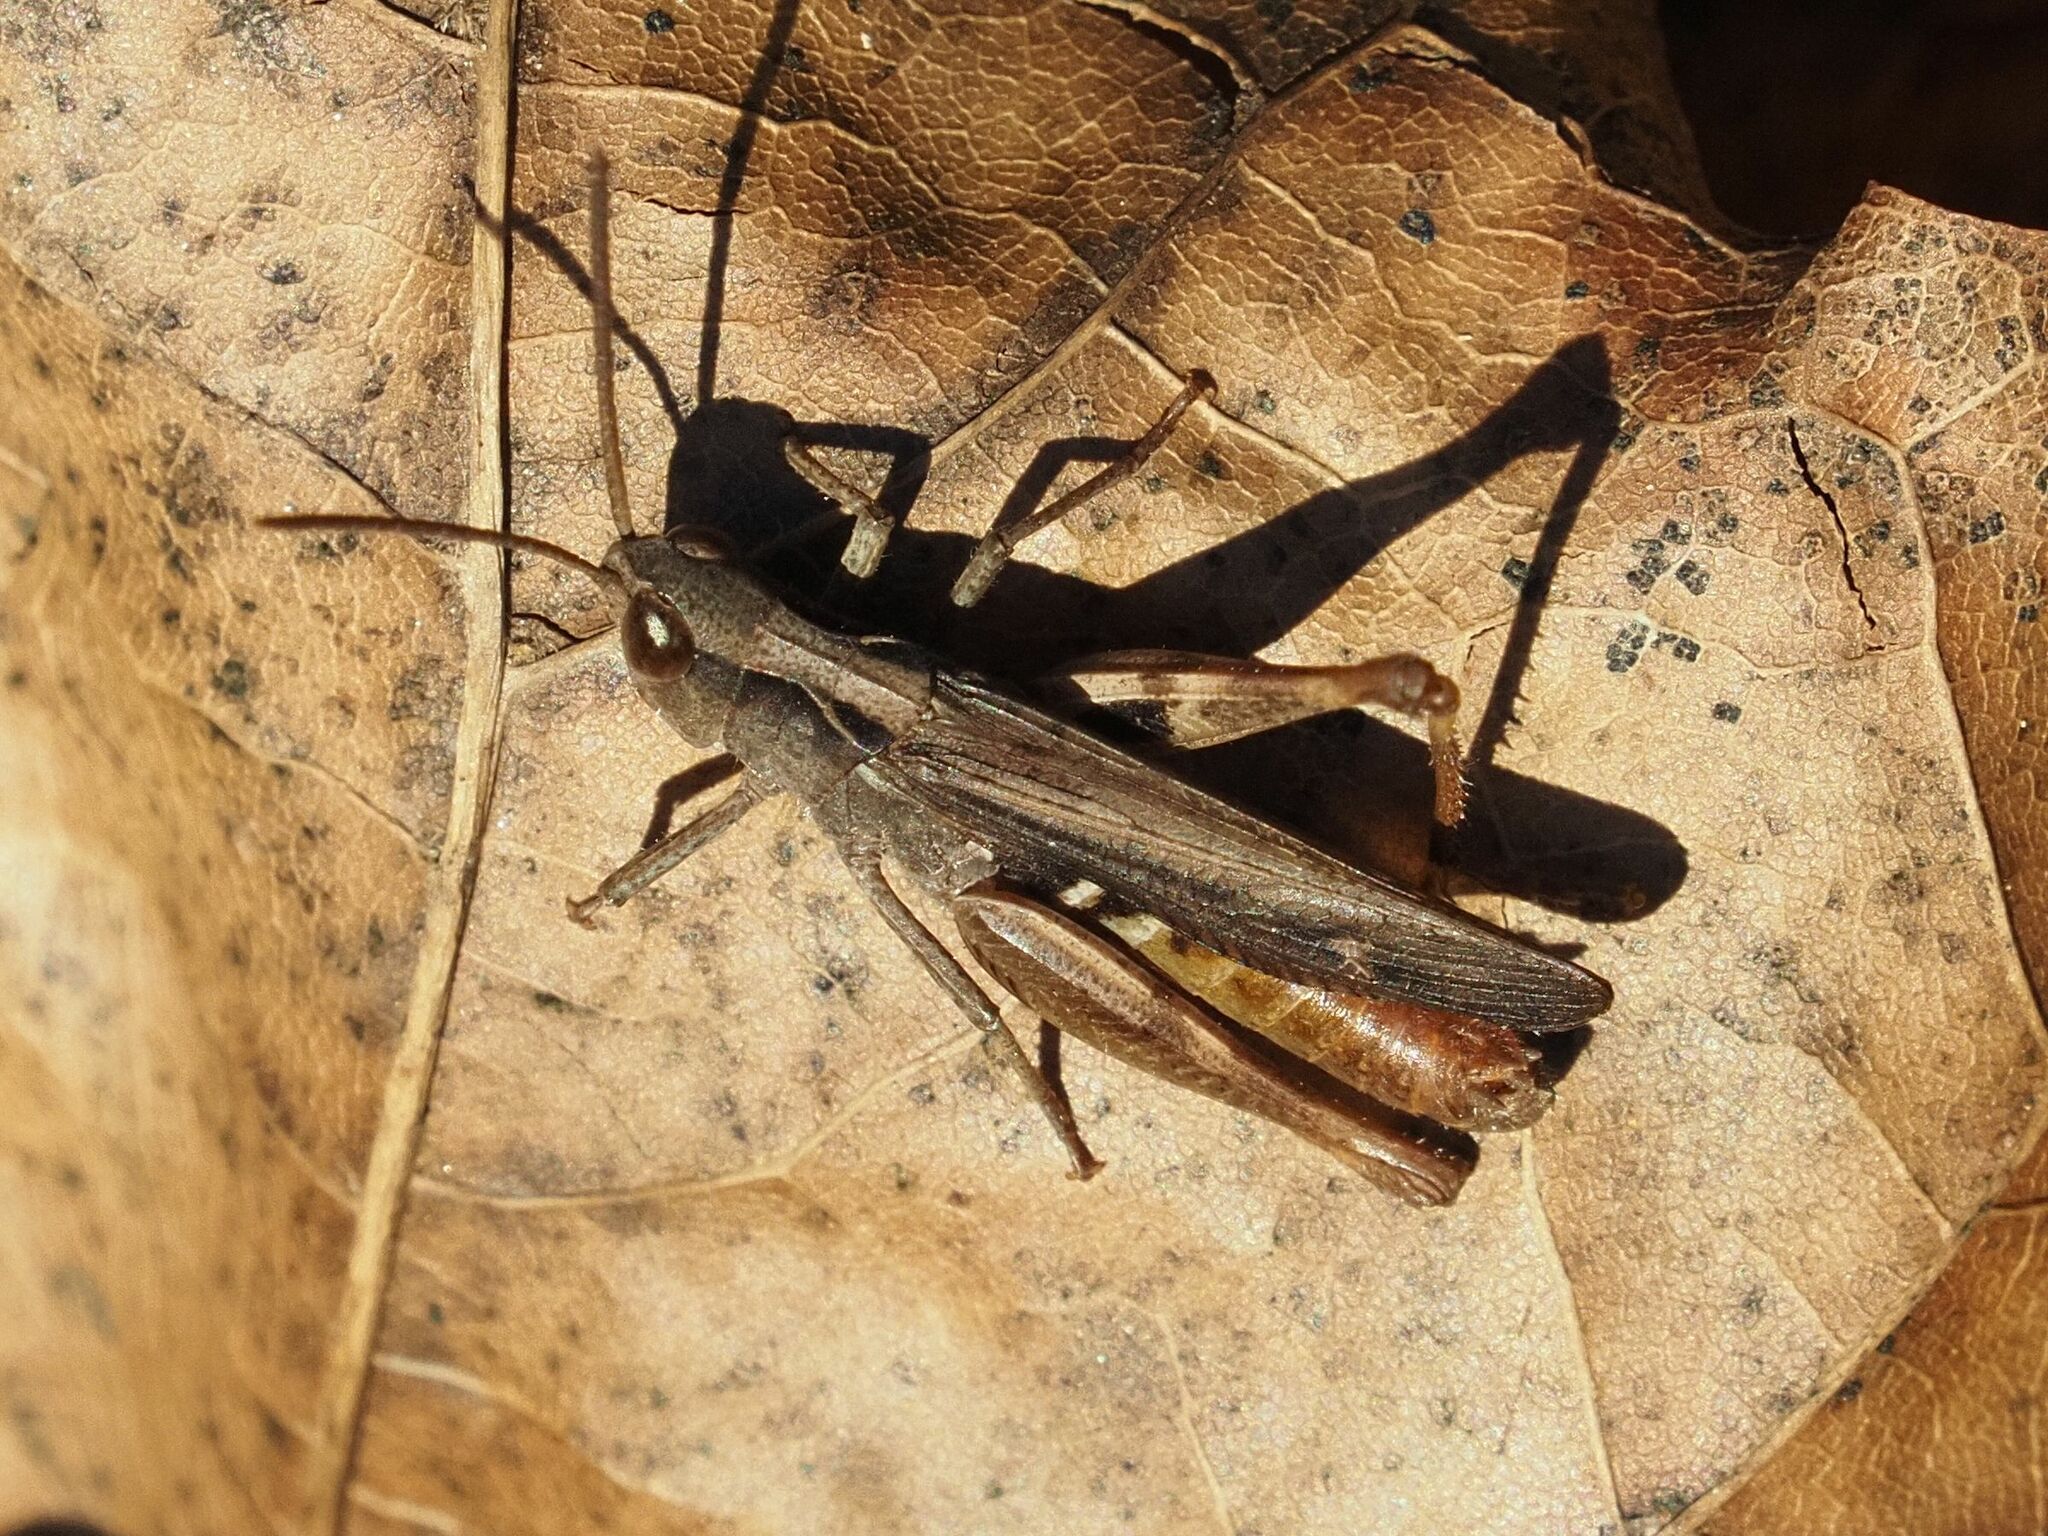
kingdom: Animalia
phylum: Arthropoda
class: Insecta
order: Orthoptera
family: Acrididae
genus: Chorthippus
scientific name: Chorthippus vagans
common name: Heath grasshopper
